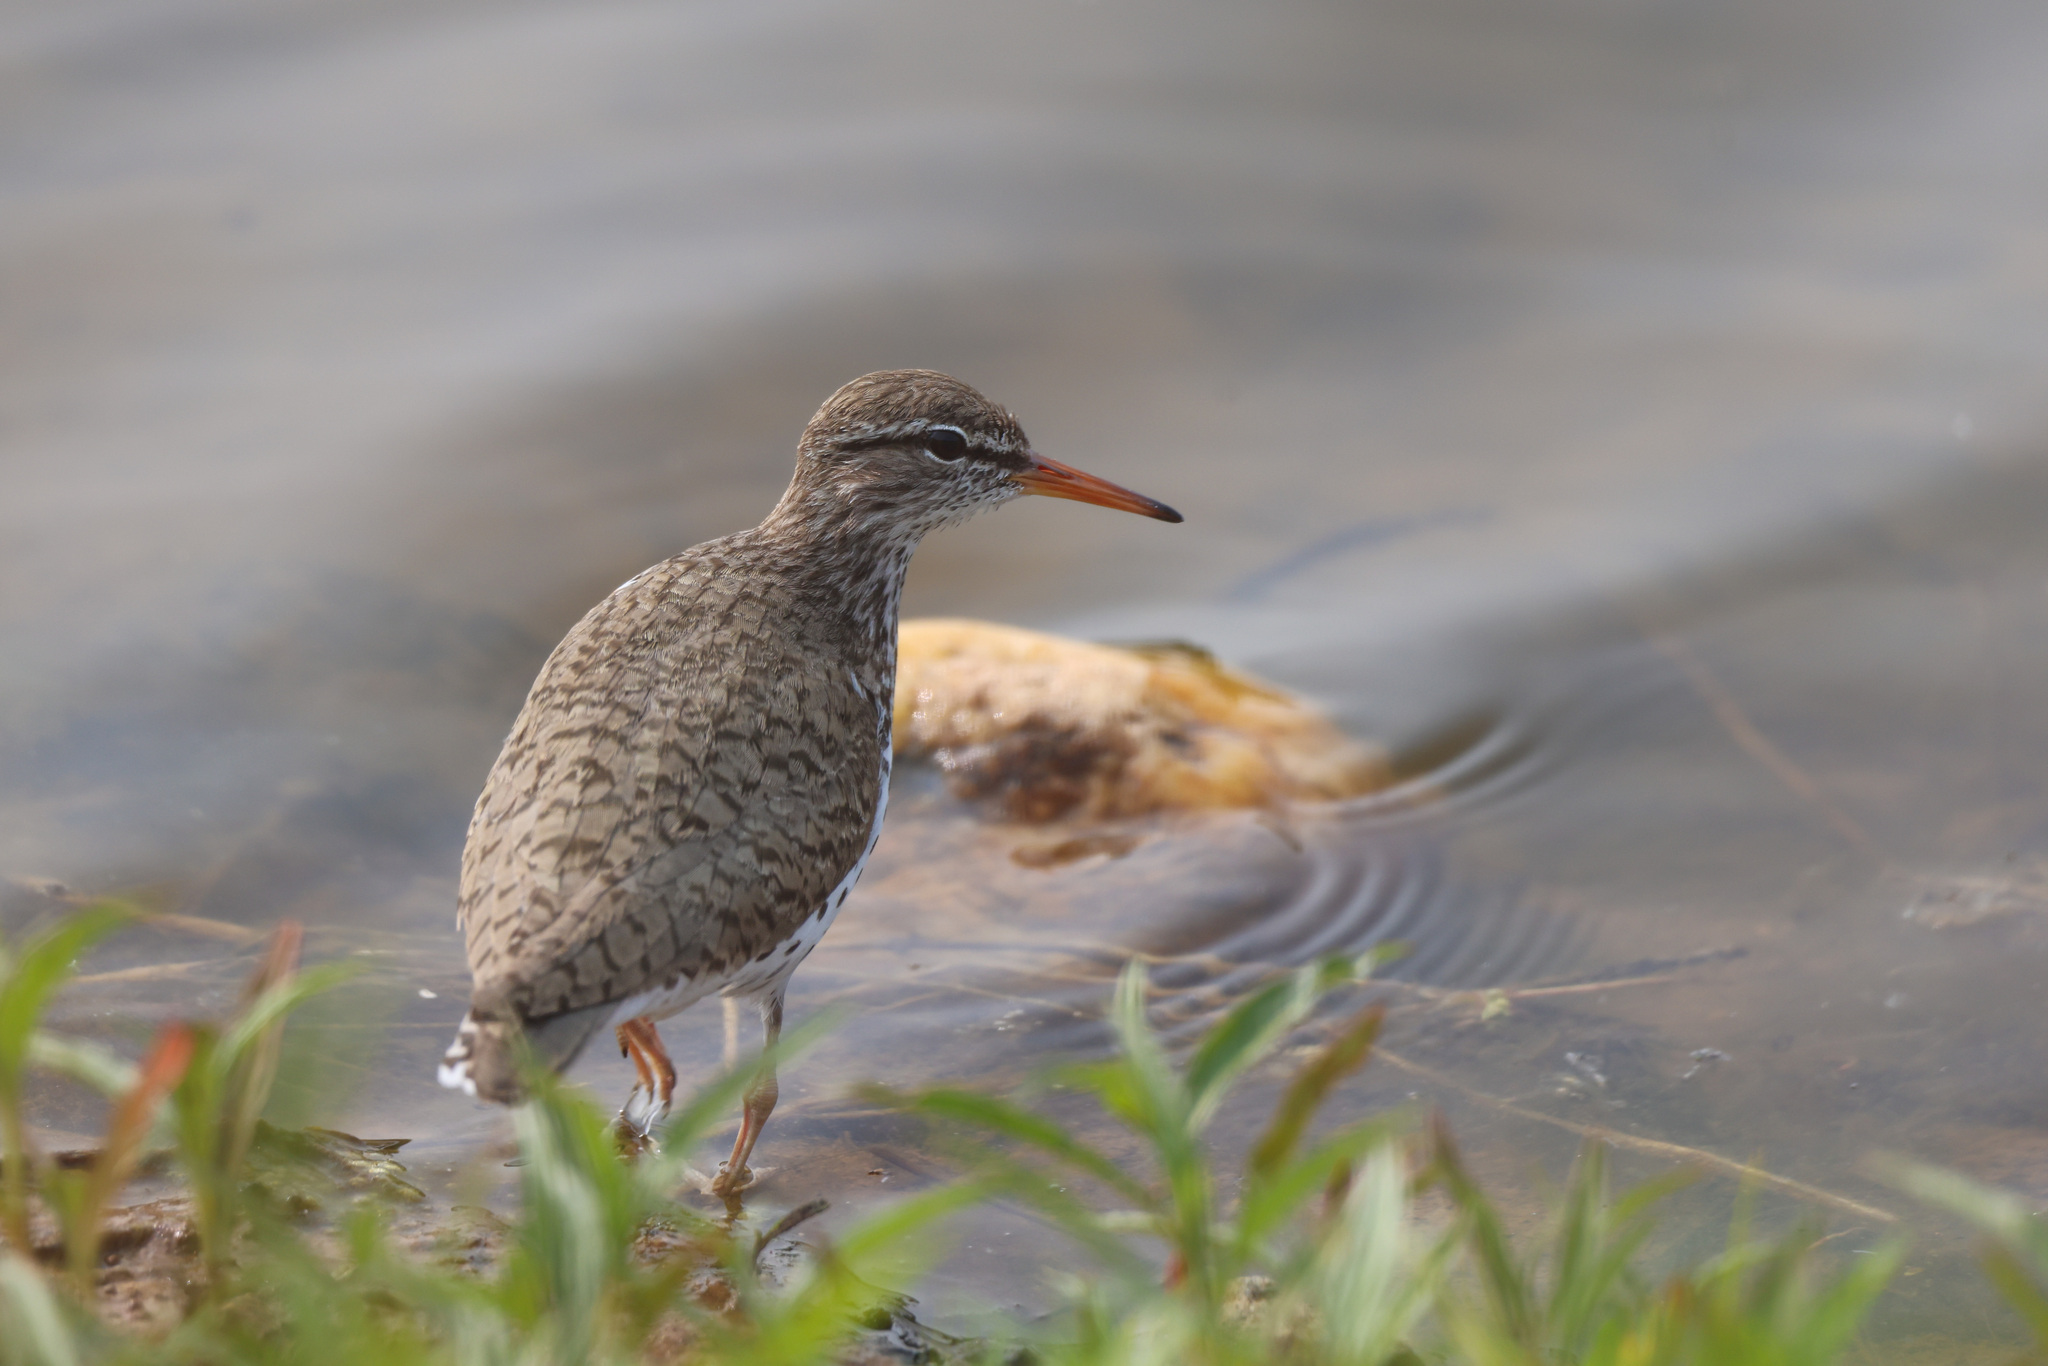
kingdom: Animalia
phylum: Chordata
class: Aves
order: Charadriiformes
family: Scolopacidae
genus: Actitis
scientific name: Actitis macularius
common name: Spotted sandpiper
